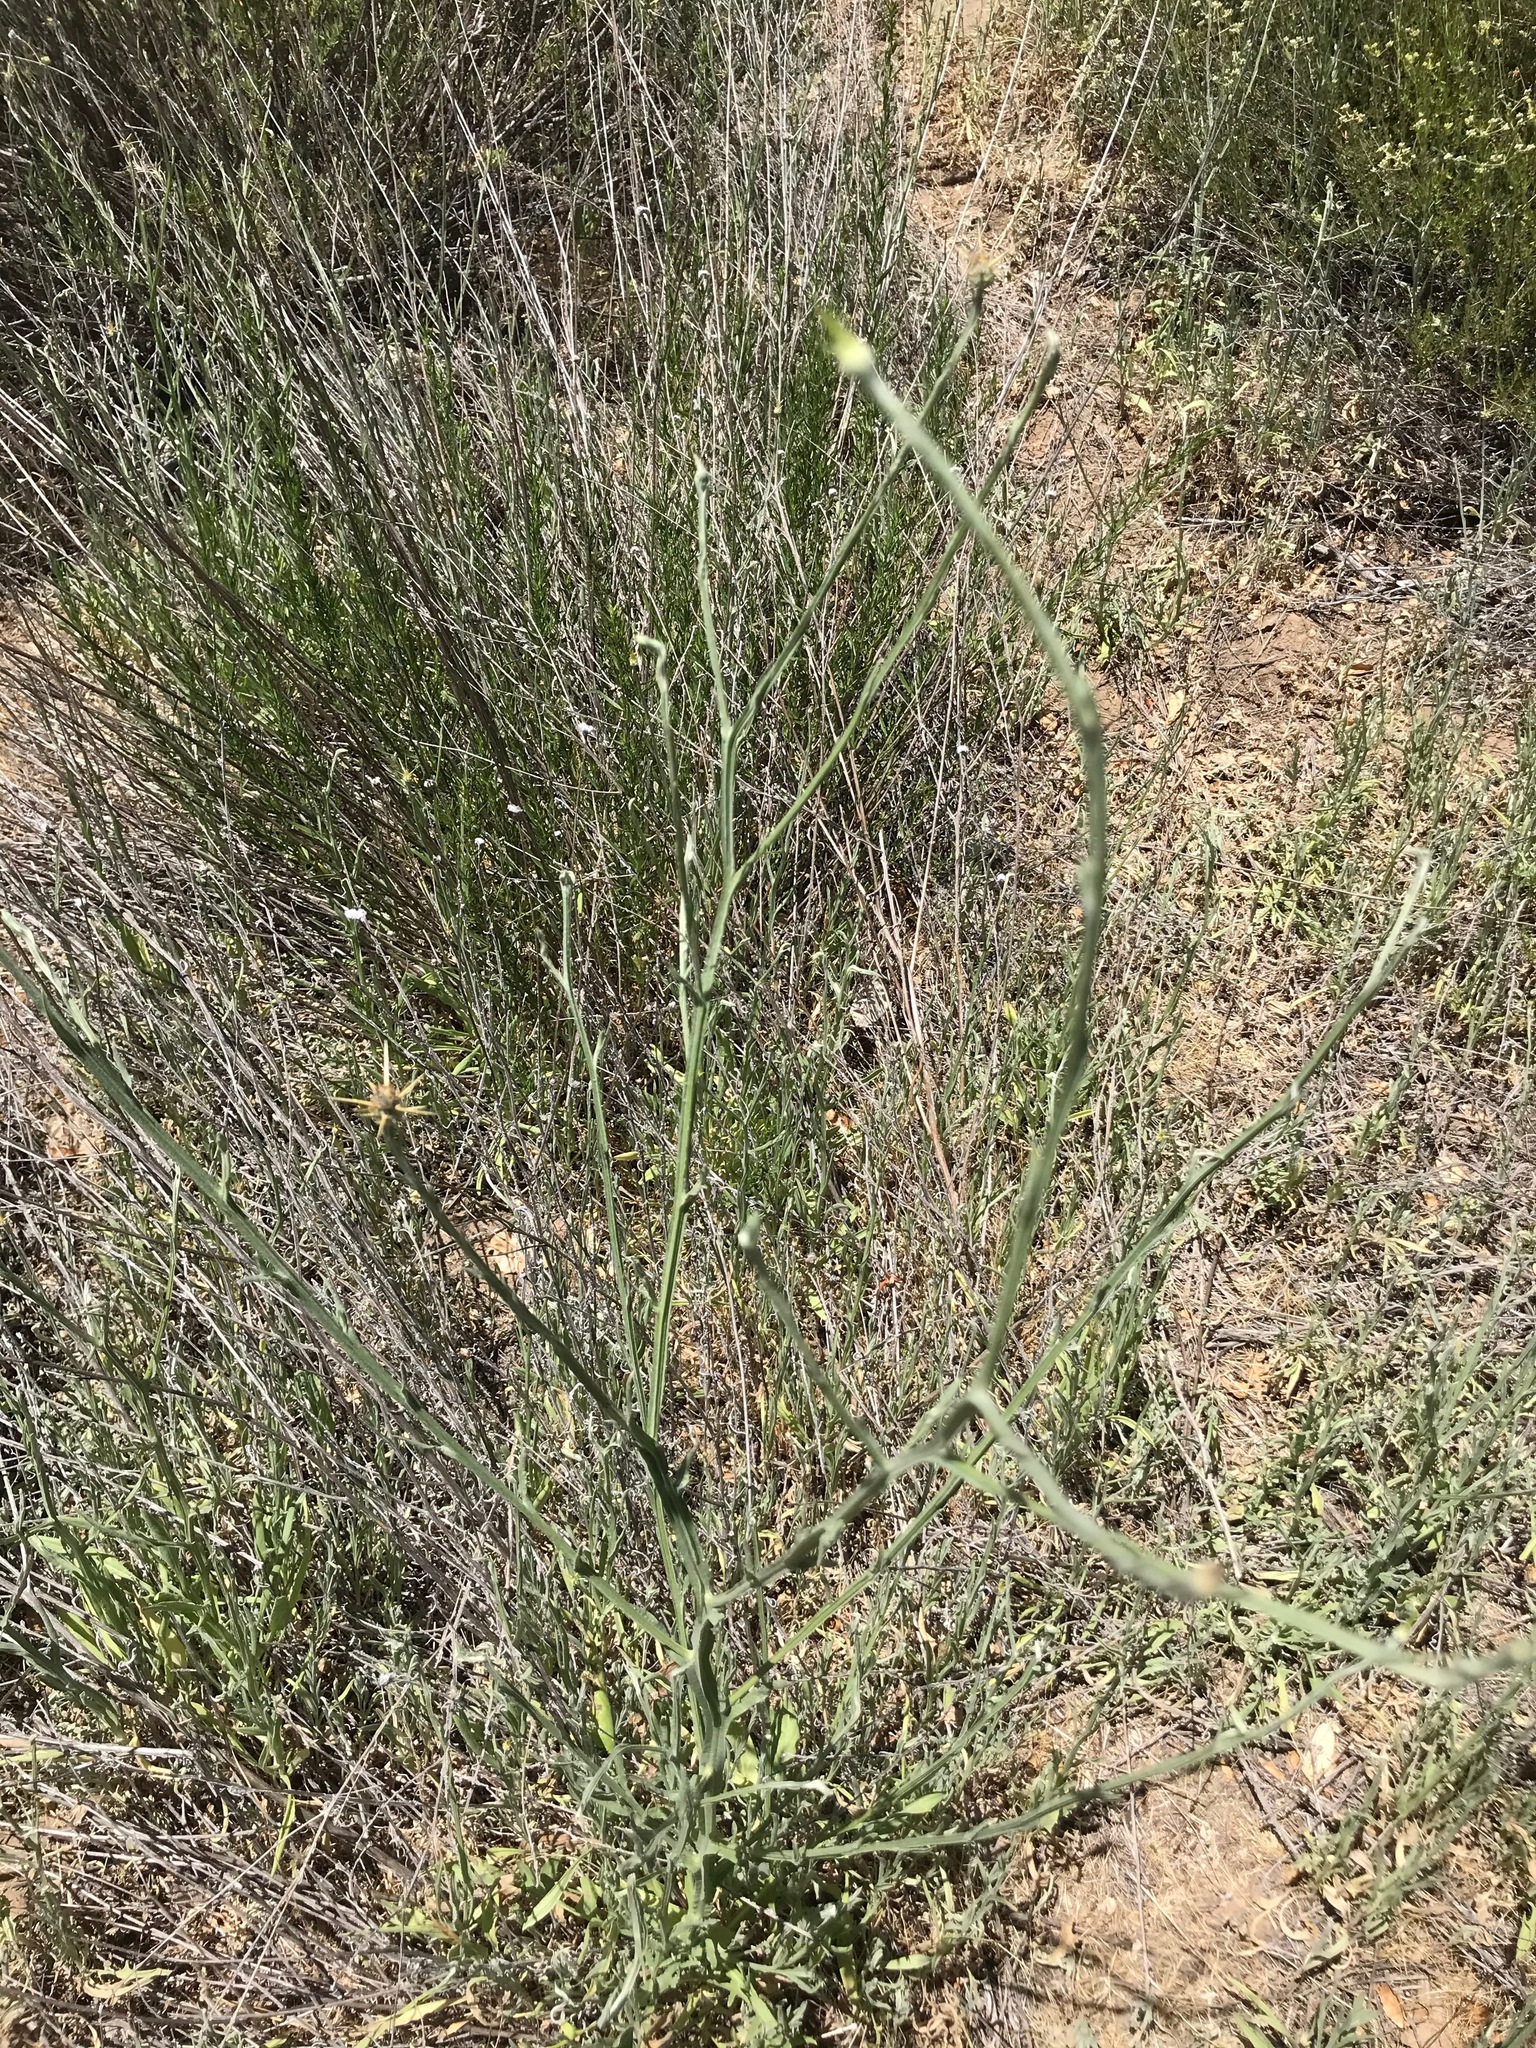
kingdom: Plantae
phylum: Tracheophyta
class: Magnoliopsida
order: Asterales
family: Asteraceae
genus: Centaurea
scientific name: Centaurea solstitialis
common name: Yellow star-thistle
